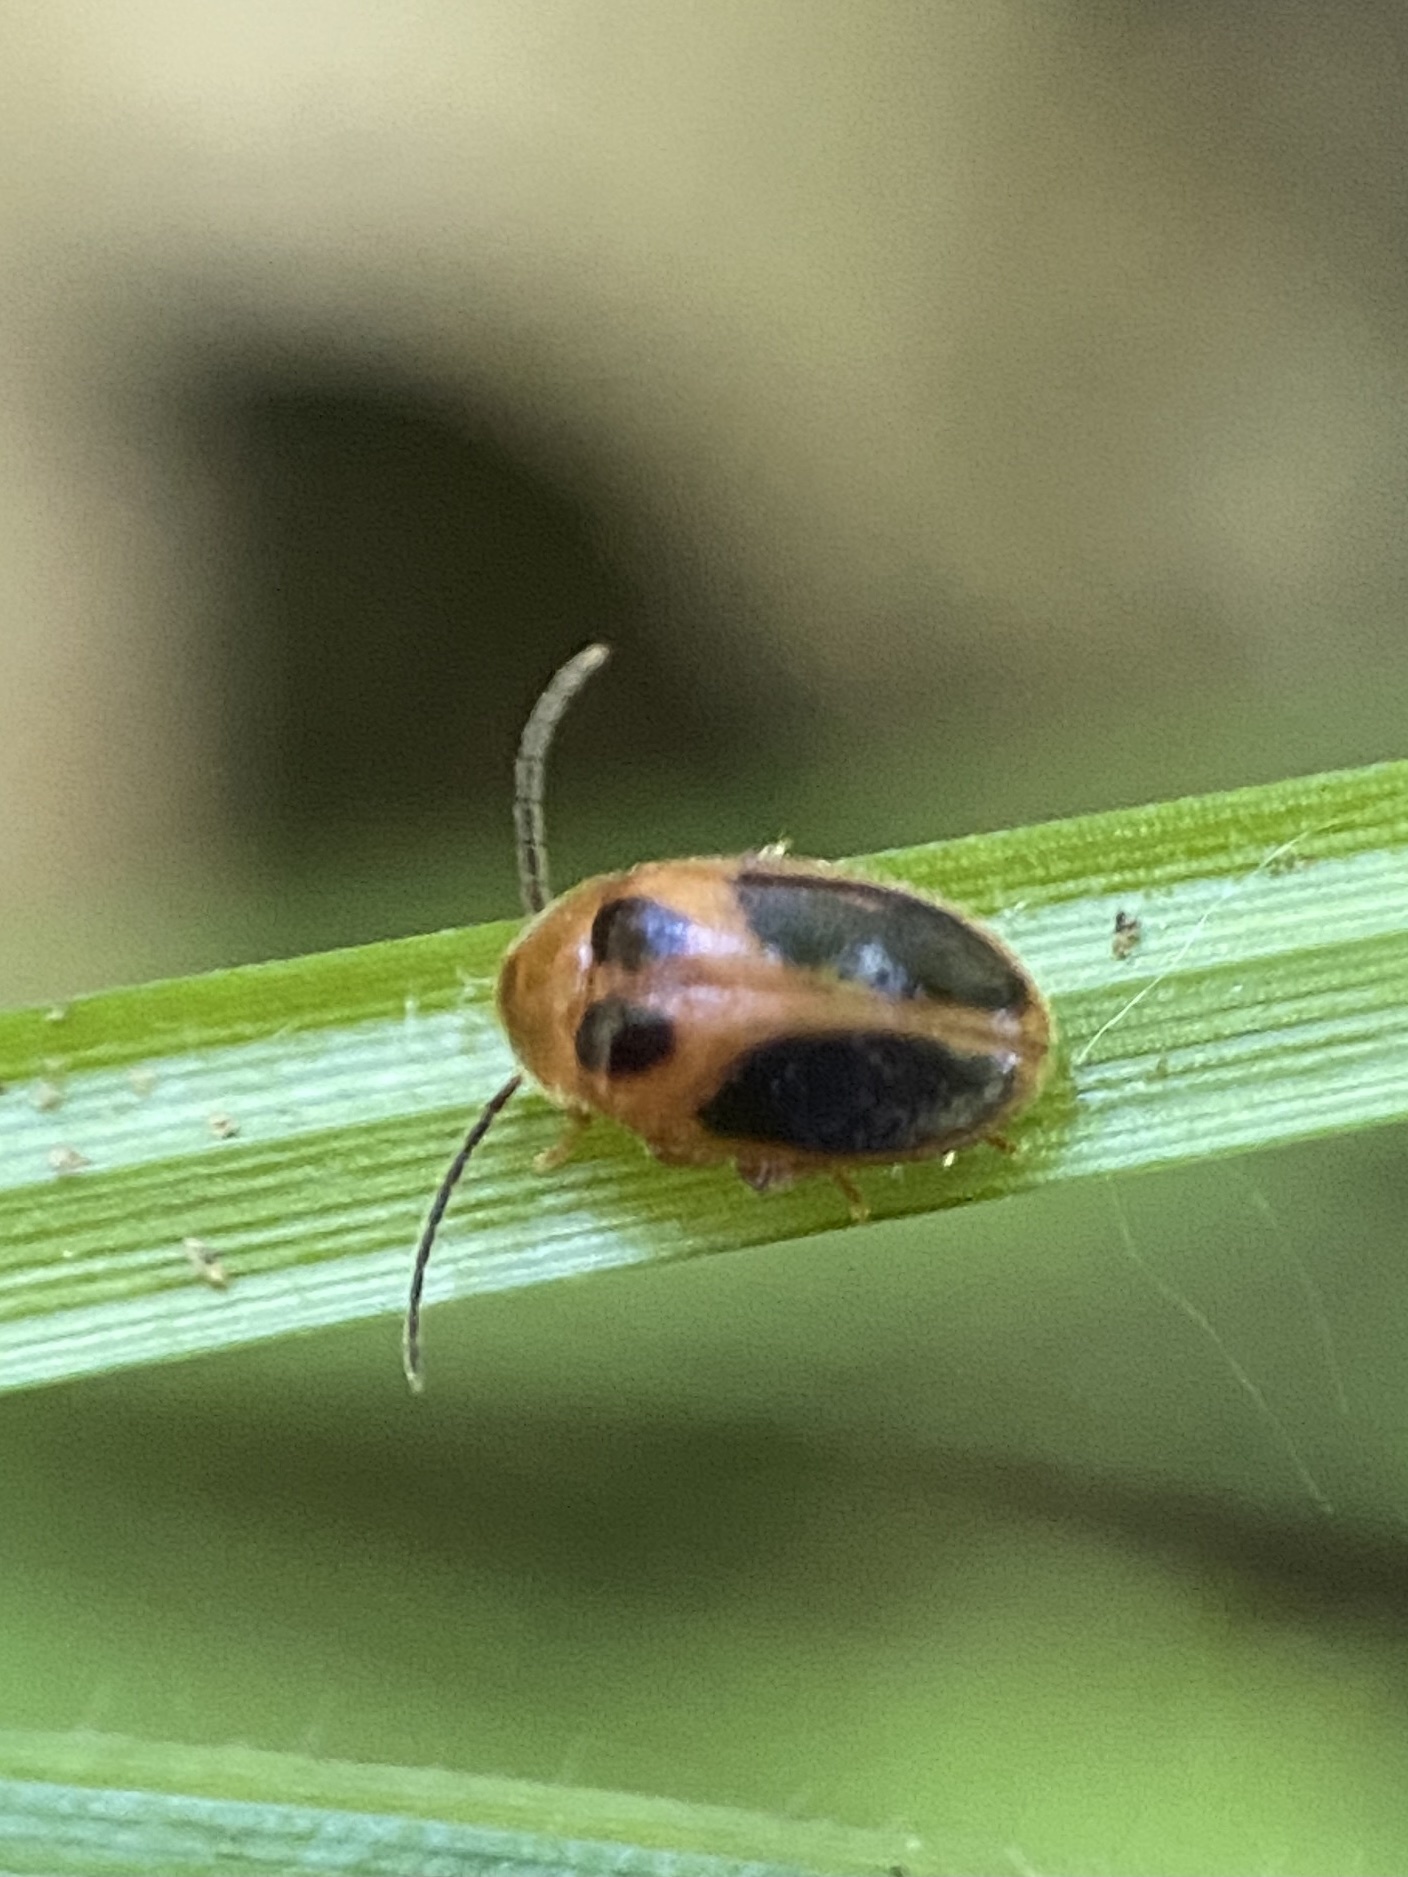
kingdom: Animalia
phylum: Arthropoda
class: Insecta
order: Coleoptera
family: Scirtidae
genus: Sacodes
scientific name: Sacodes pulchella
